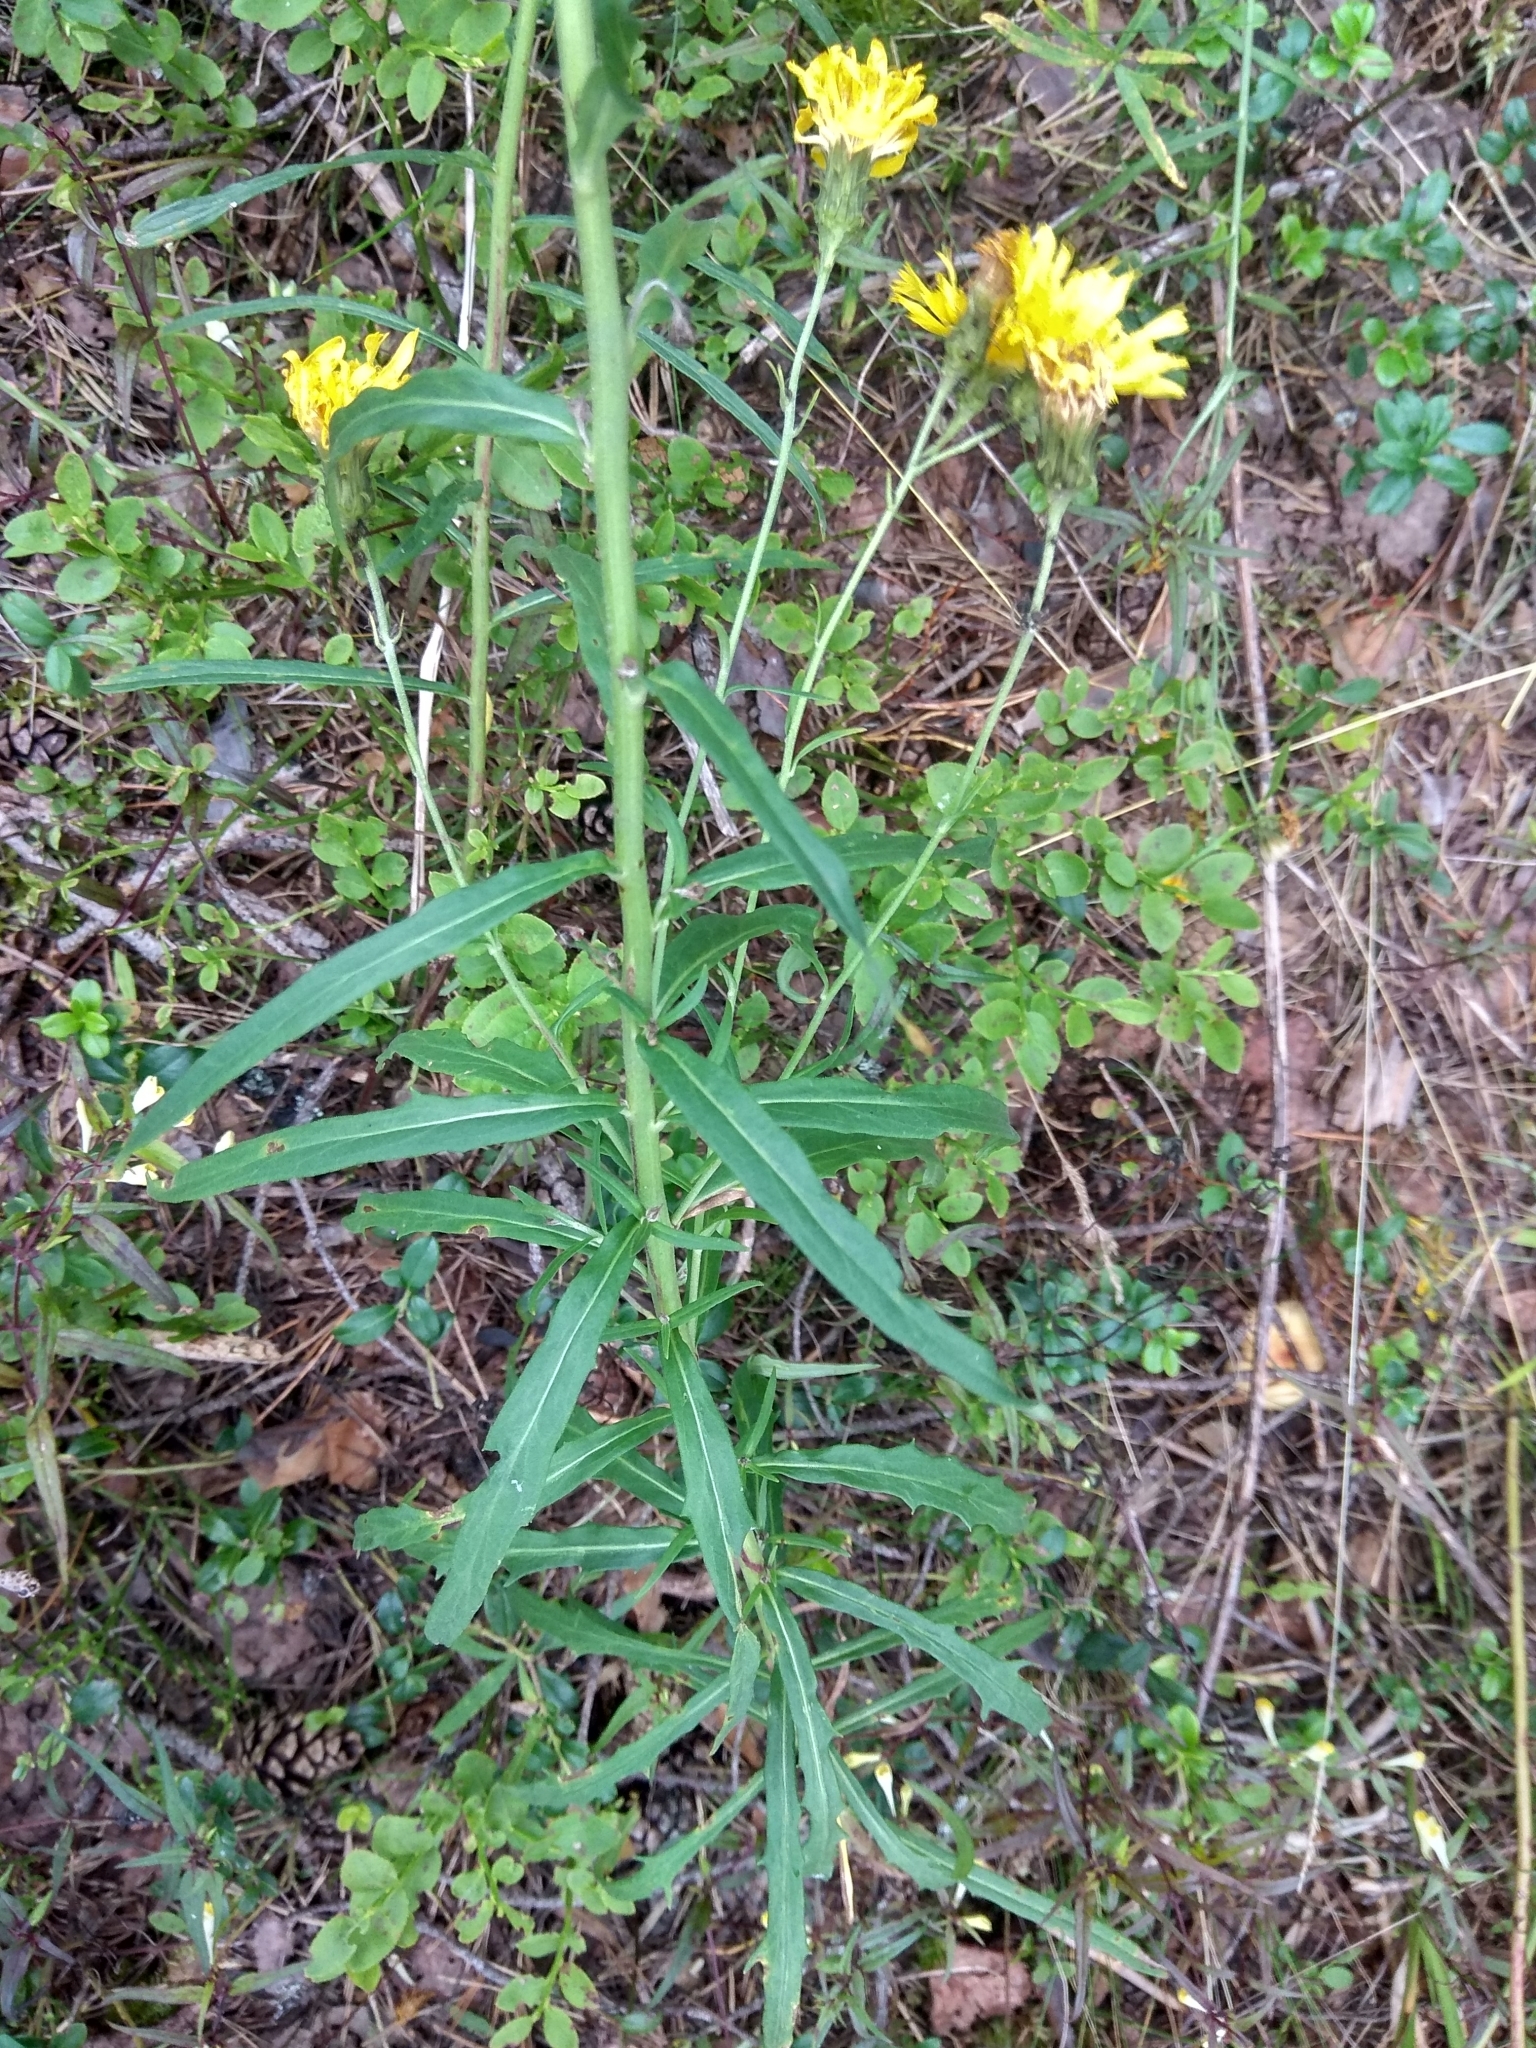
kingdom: Plantae
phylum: Tracheophyta
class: Magnoliopsida
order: Asterales
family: Asteraceae
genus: Hieracium
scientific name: Hieracium umbellatum
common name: Northern hawkweed
